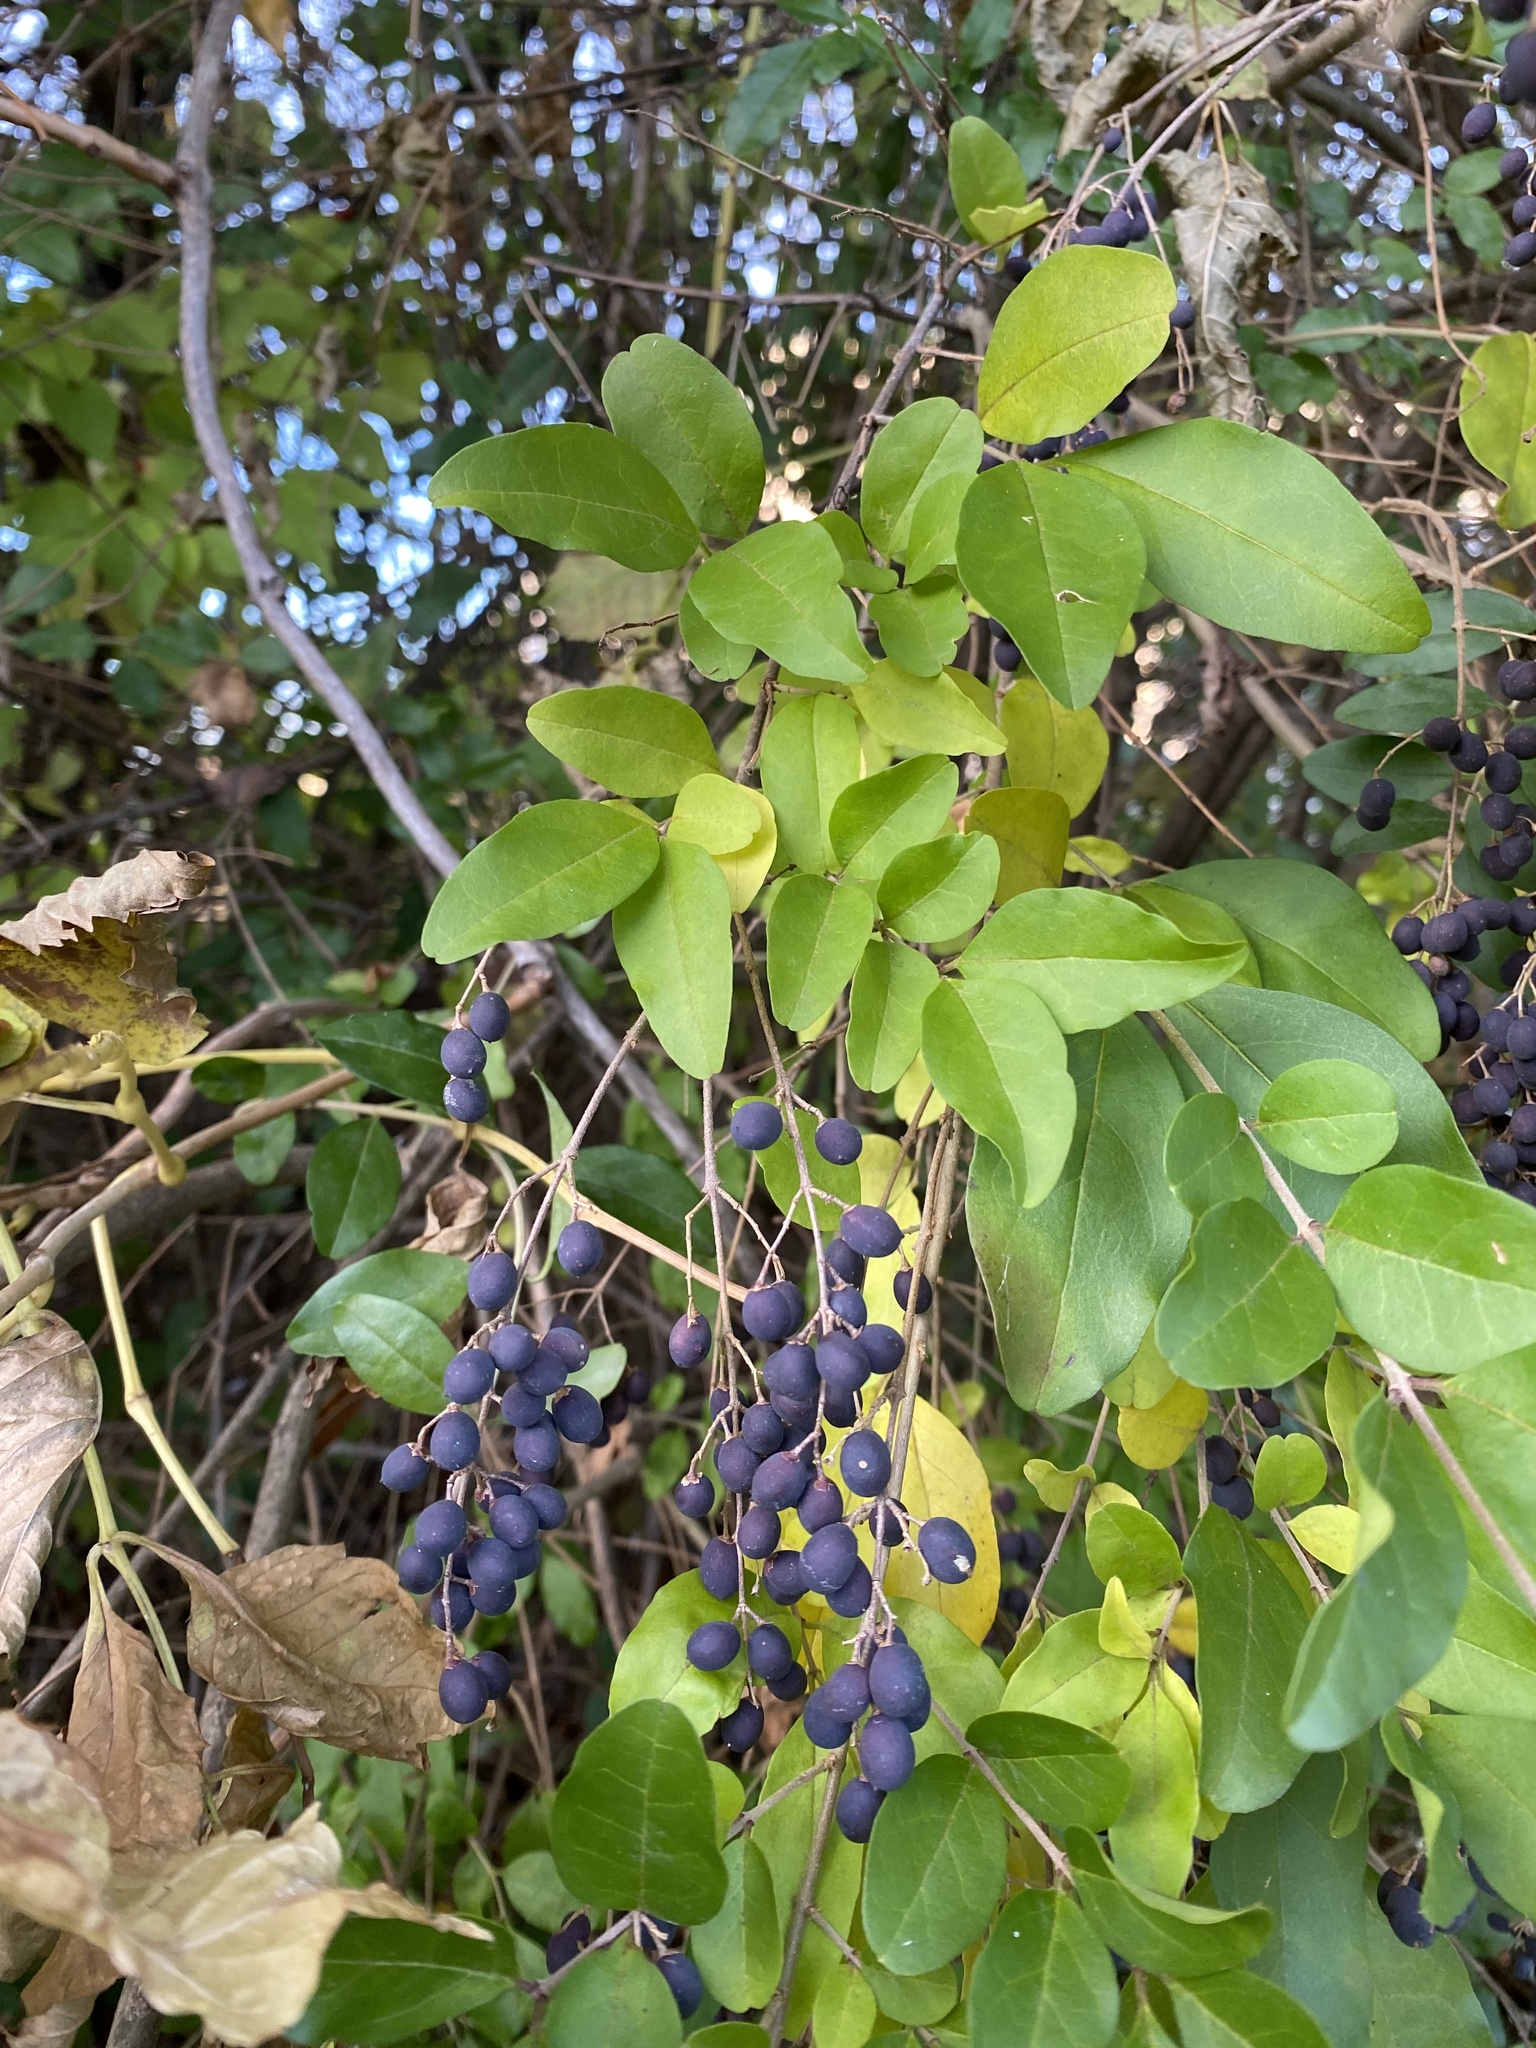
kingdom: Plantae
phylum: Tracheophyta
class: Magnoliopsida
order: Lamiales
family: Oleaceae
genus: Ligustrum
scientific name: Ligustrum sinense
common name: Chinese privet
